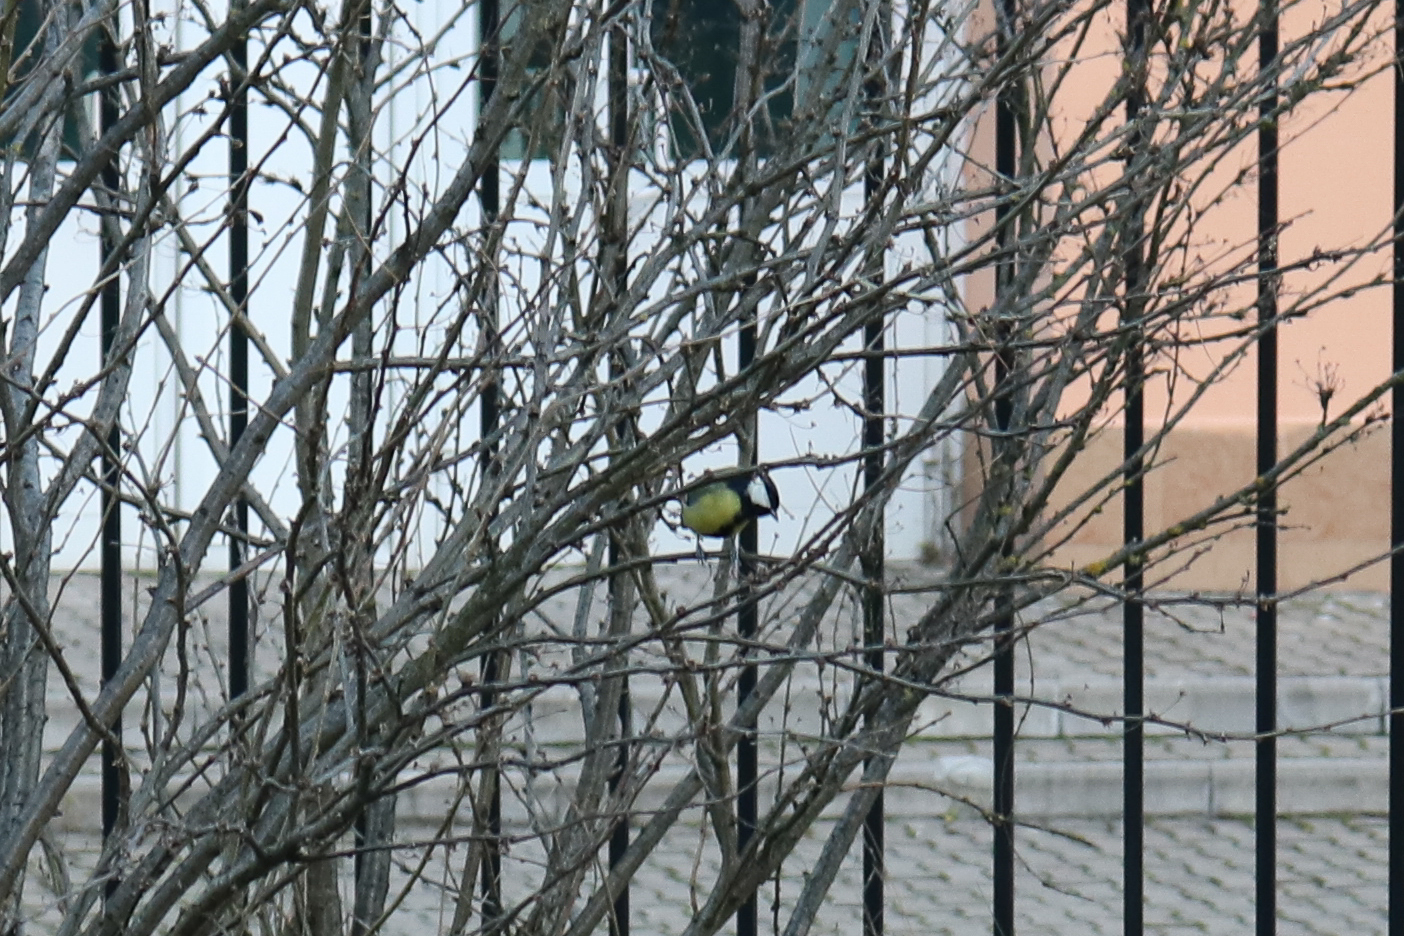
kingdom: Animalia
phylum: Chordata
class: Aves
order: Passeriformes
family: Paridae
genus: Parus
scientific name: Parus major
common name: Great tit
